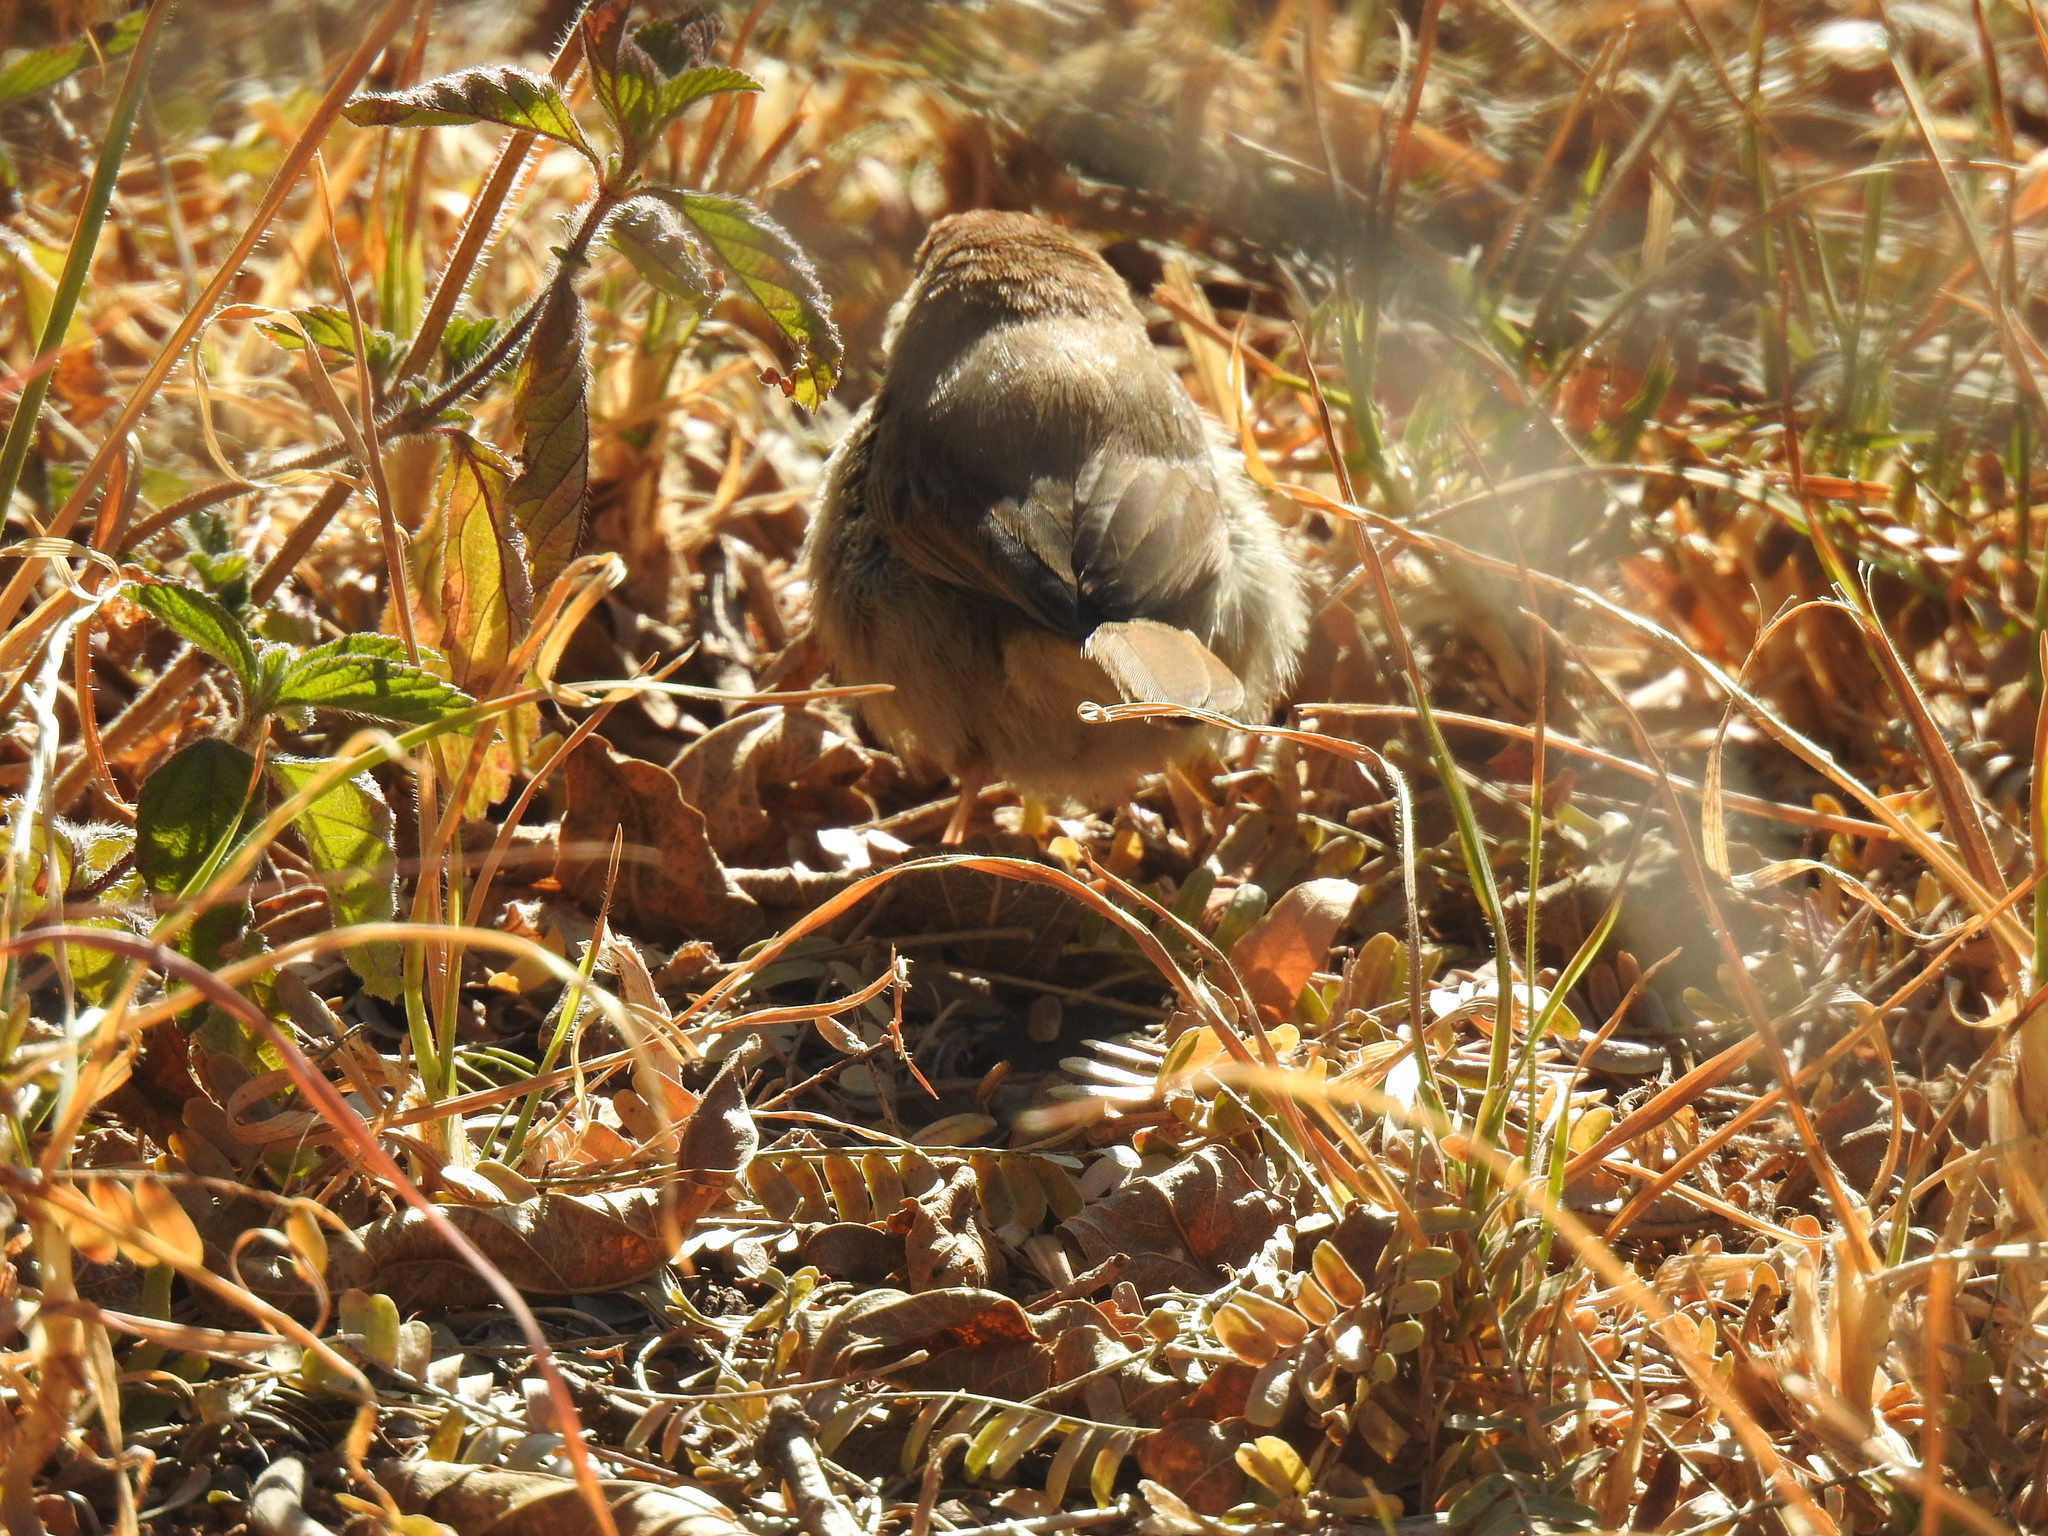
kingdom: Animalia
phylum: Chordata
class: Aves
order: Passeriformes
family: Cisticolidae
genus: Cisticola
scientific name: Cisticola fulvicapilla
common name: Neddicky
